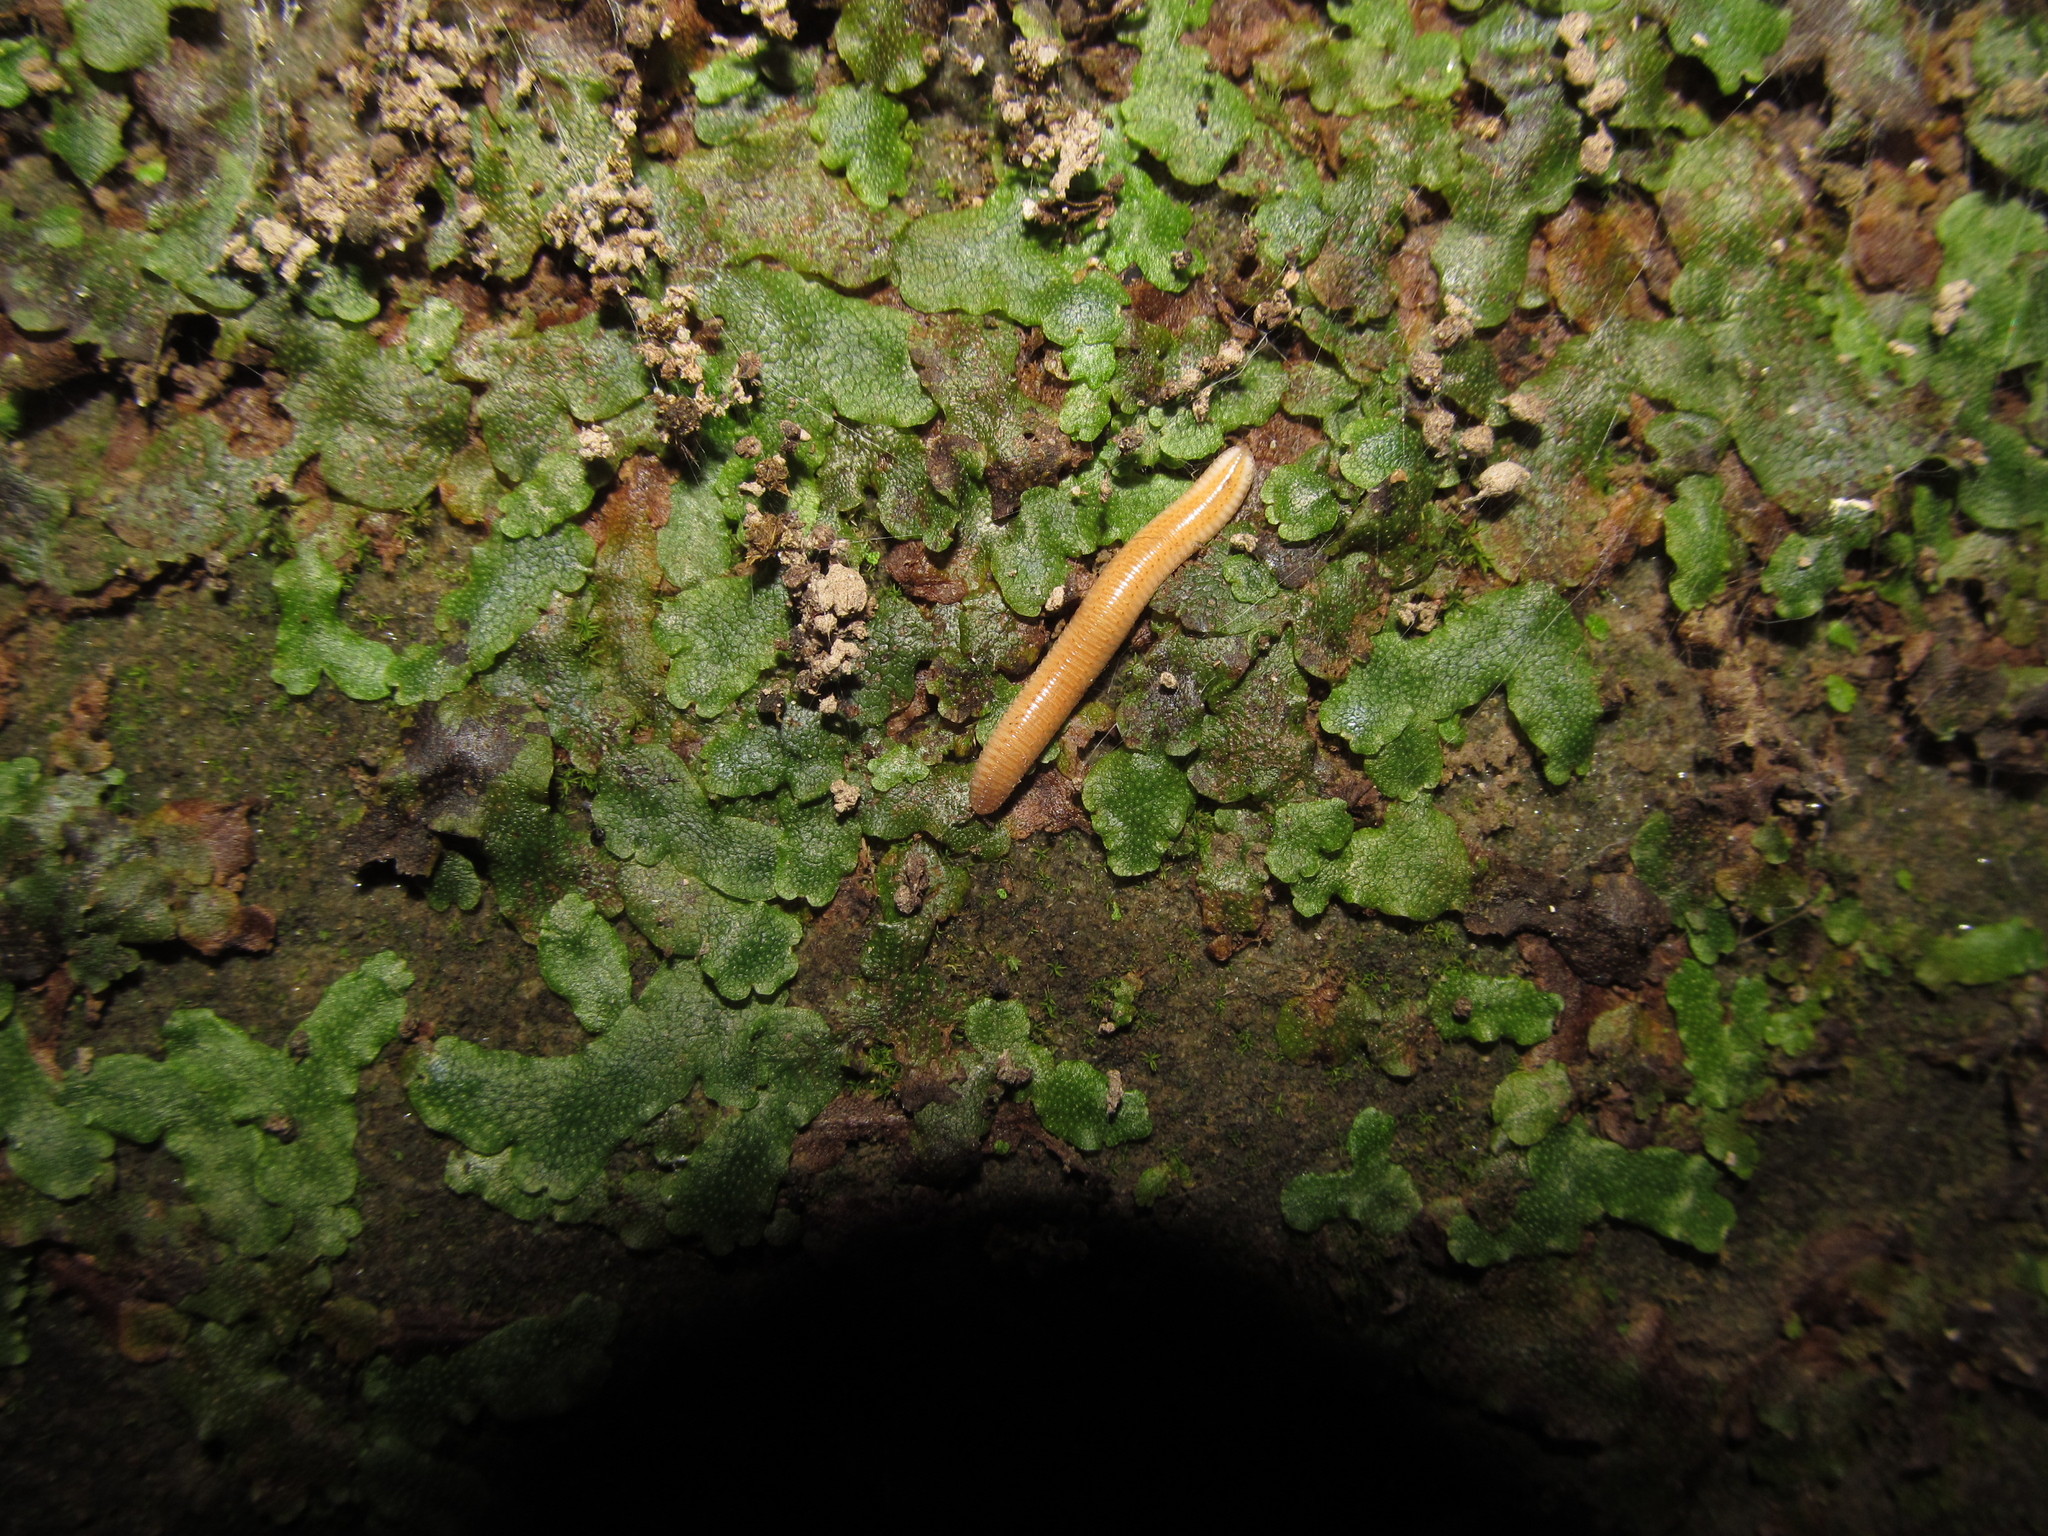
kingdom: Plantae
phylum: Marchantiophyta
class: Marchantiopsida
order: Marchantiales
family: Conocephalaceae
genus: Conocephalum
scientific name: Conocephalum salebrosum
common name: Cat-tongue liverwort
